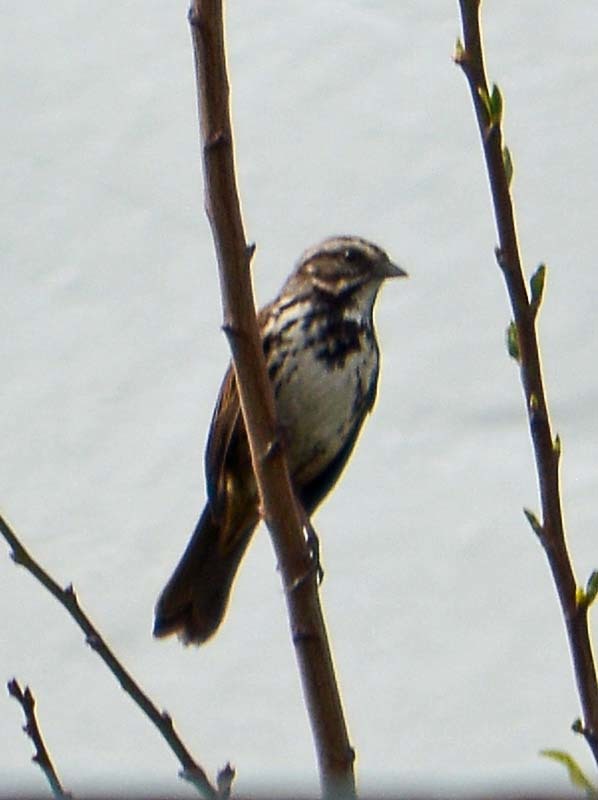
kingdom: Animalia
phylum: Chordata
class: Aves
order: Passeriformes
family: Passerellidae
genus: Melospiza
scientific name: Melospiza melodia
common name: Song sparrow
